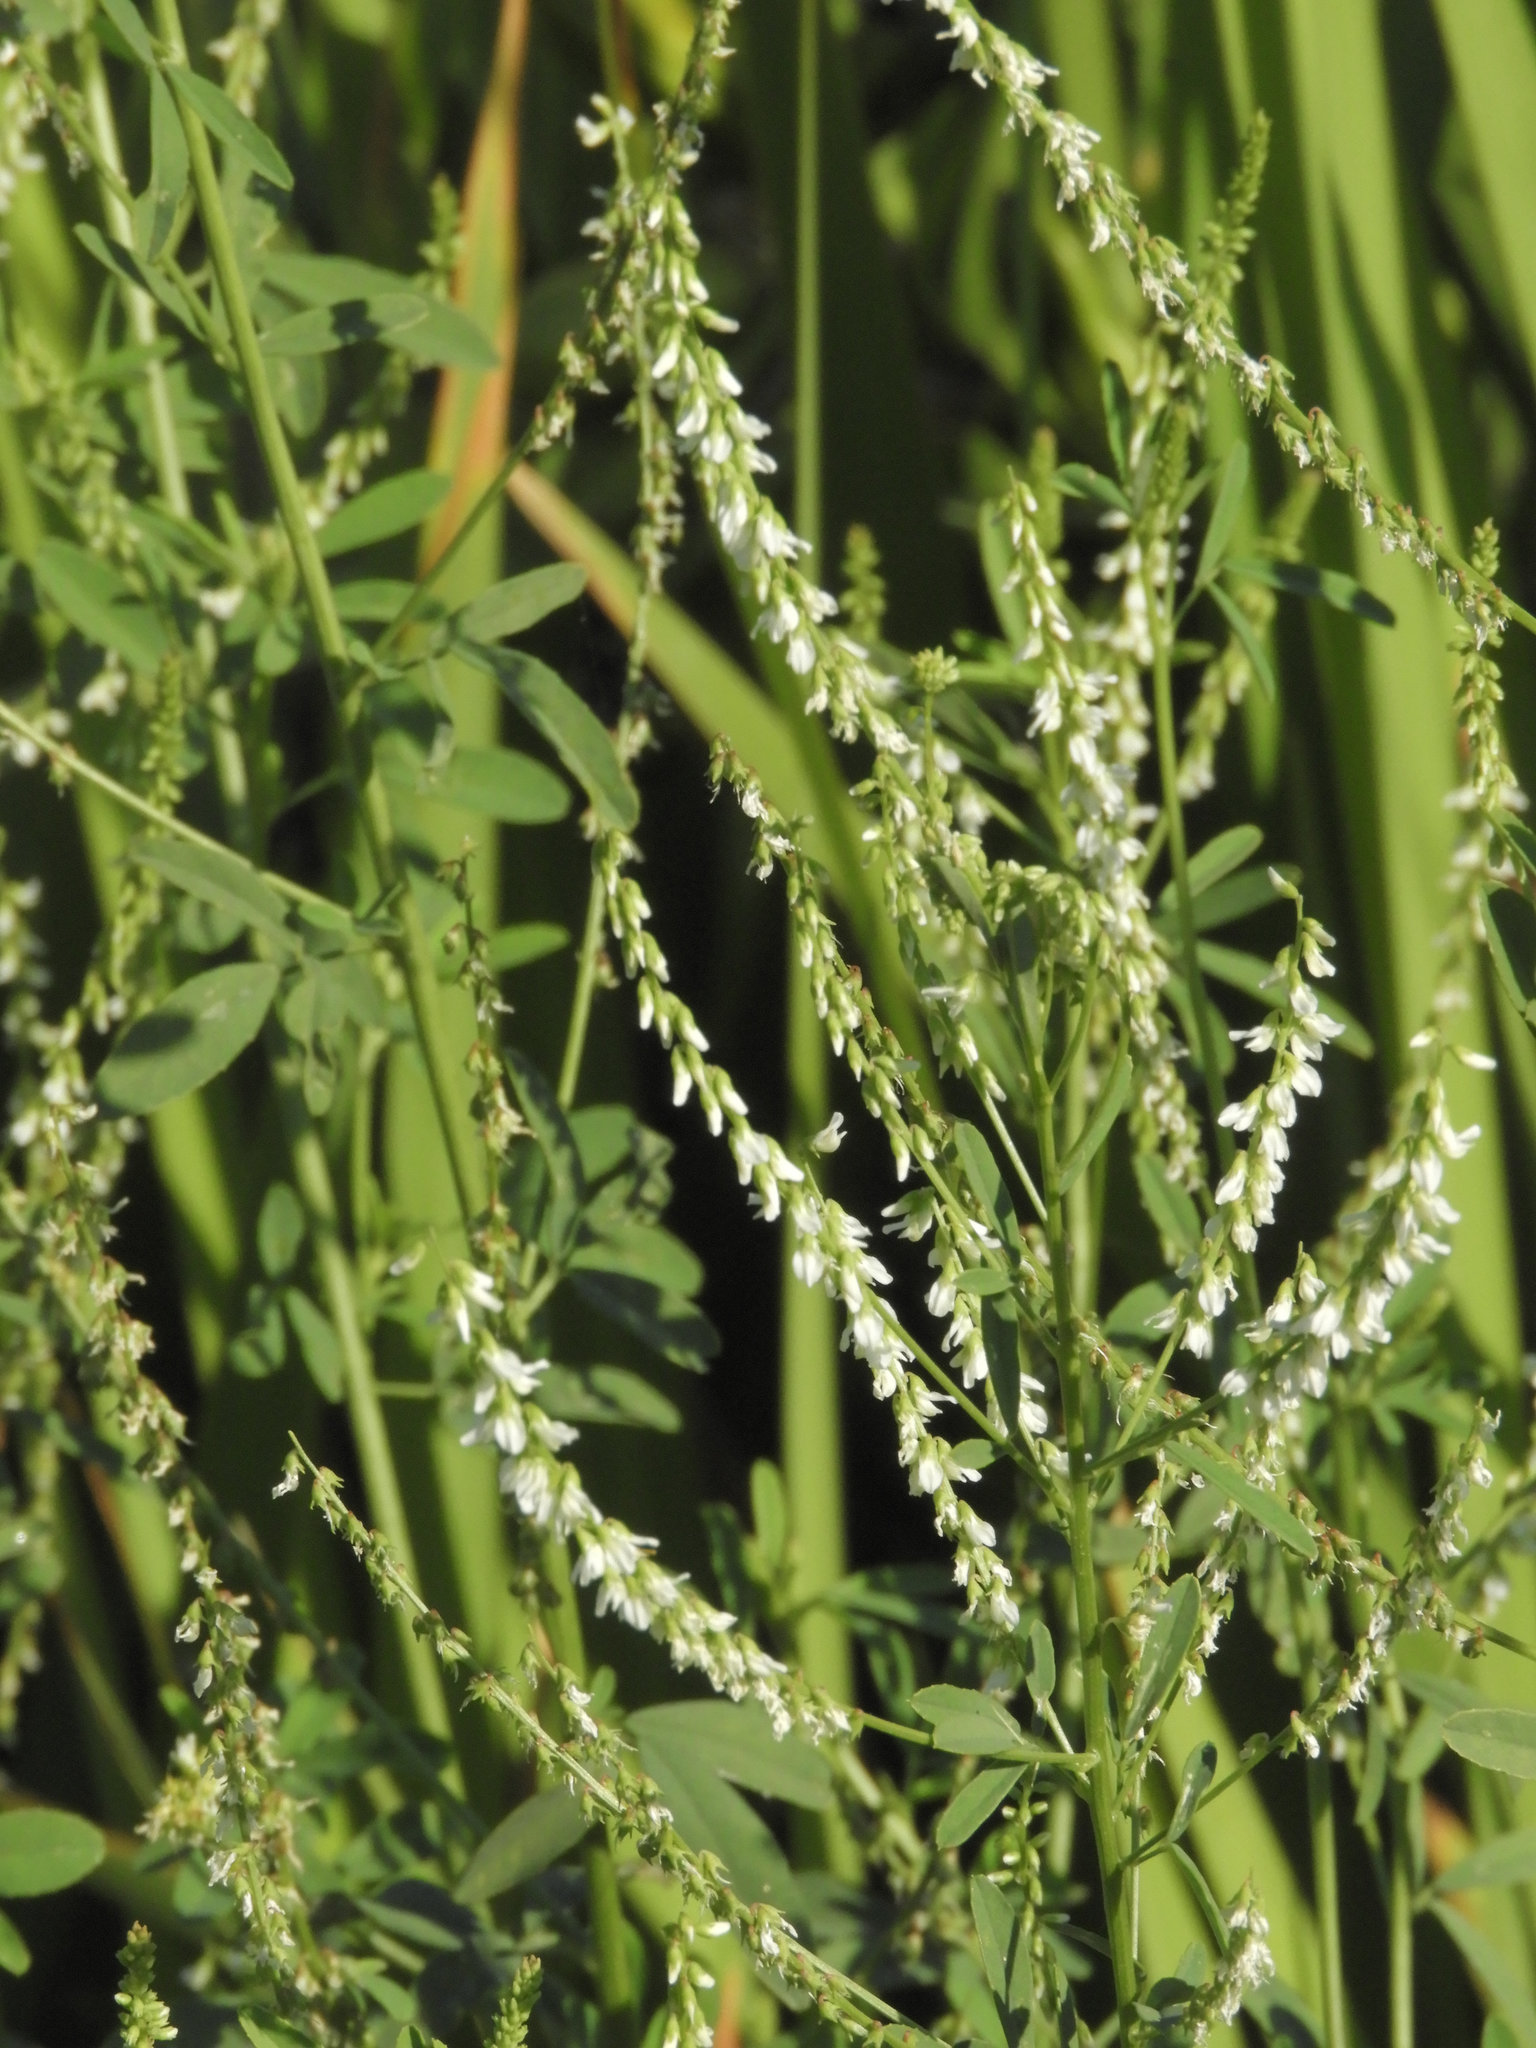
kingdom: Plantae
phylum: Tracheophyta
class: Magnoliopsida
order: Fabales
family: Fabaceae
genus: Melilotus
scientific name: Melilotus albus
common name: White melilot
